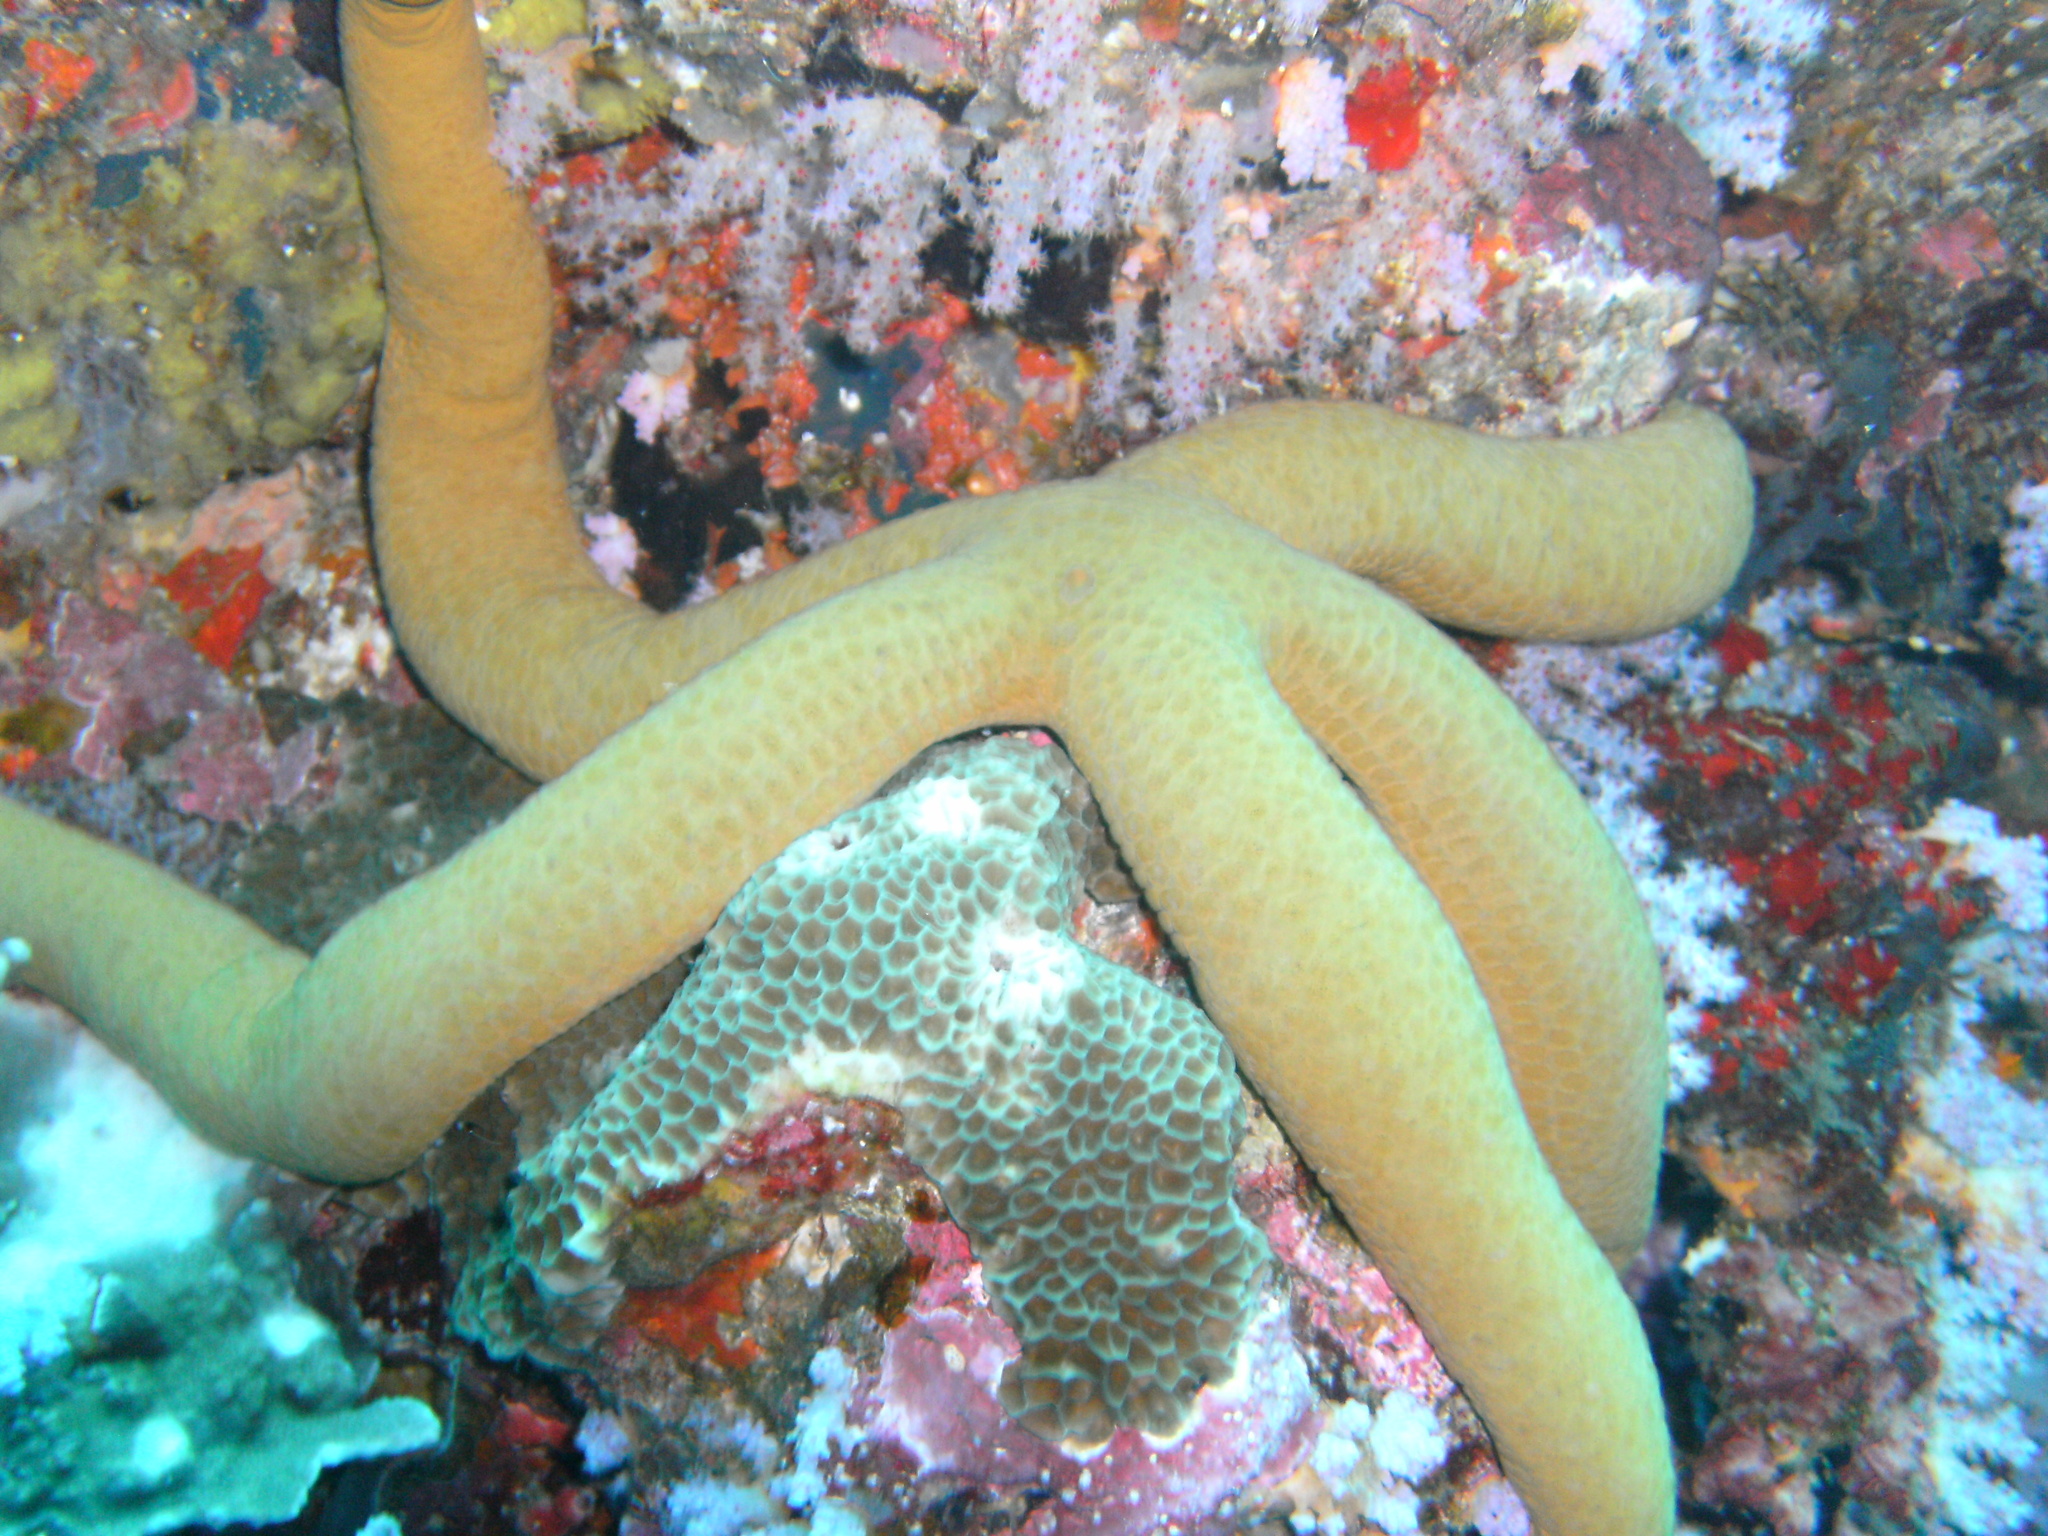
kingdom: Animalia
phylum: Echinodermata
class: Asteroidea
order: Valvatida
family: Ophidiasteridae
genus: Linckia
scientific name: Linckia guildingi
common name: Common comet star
